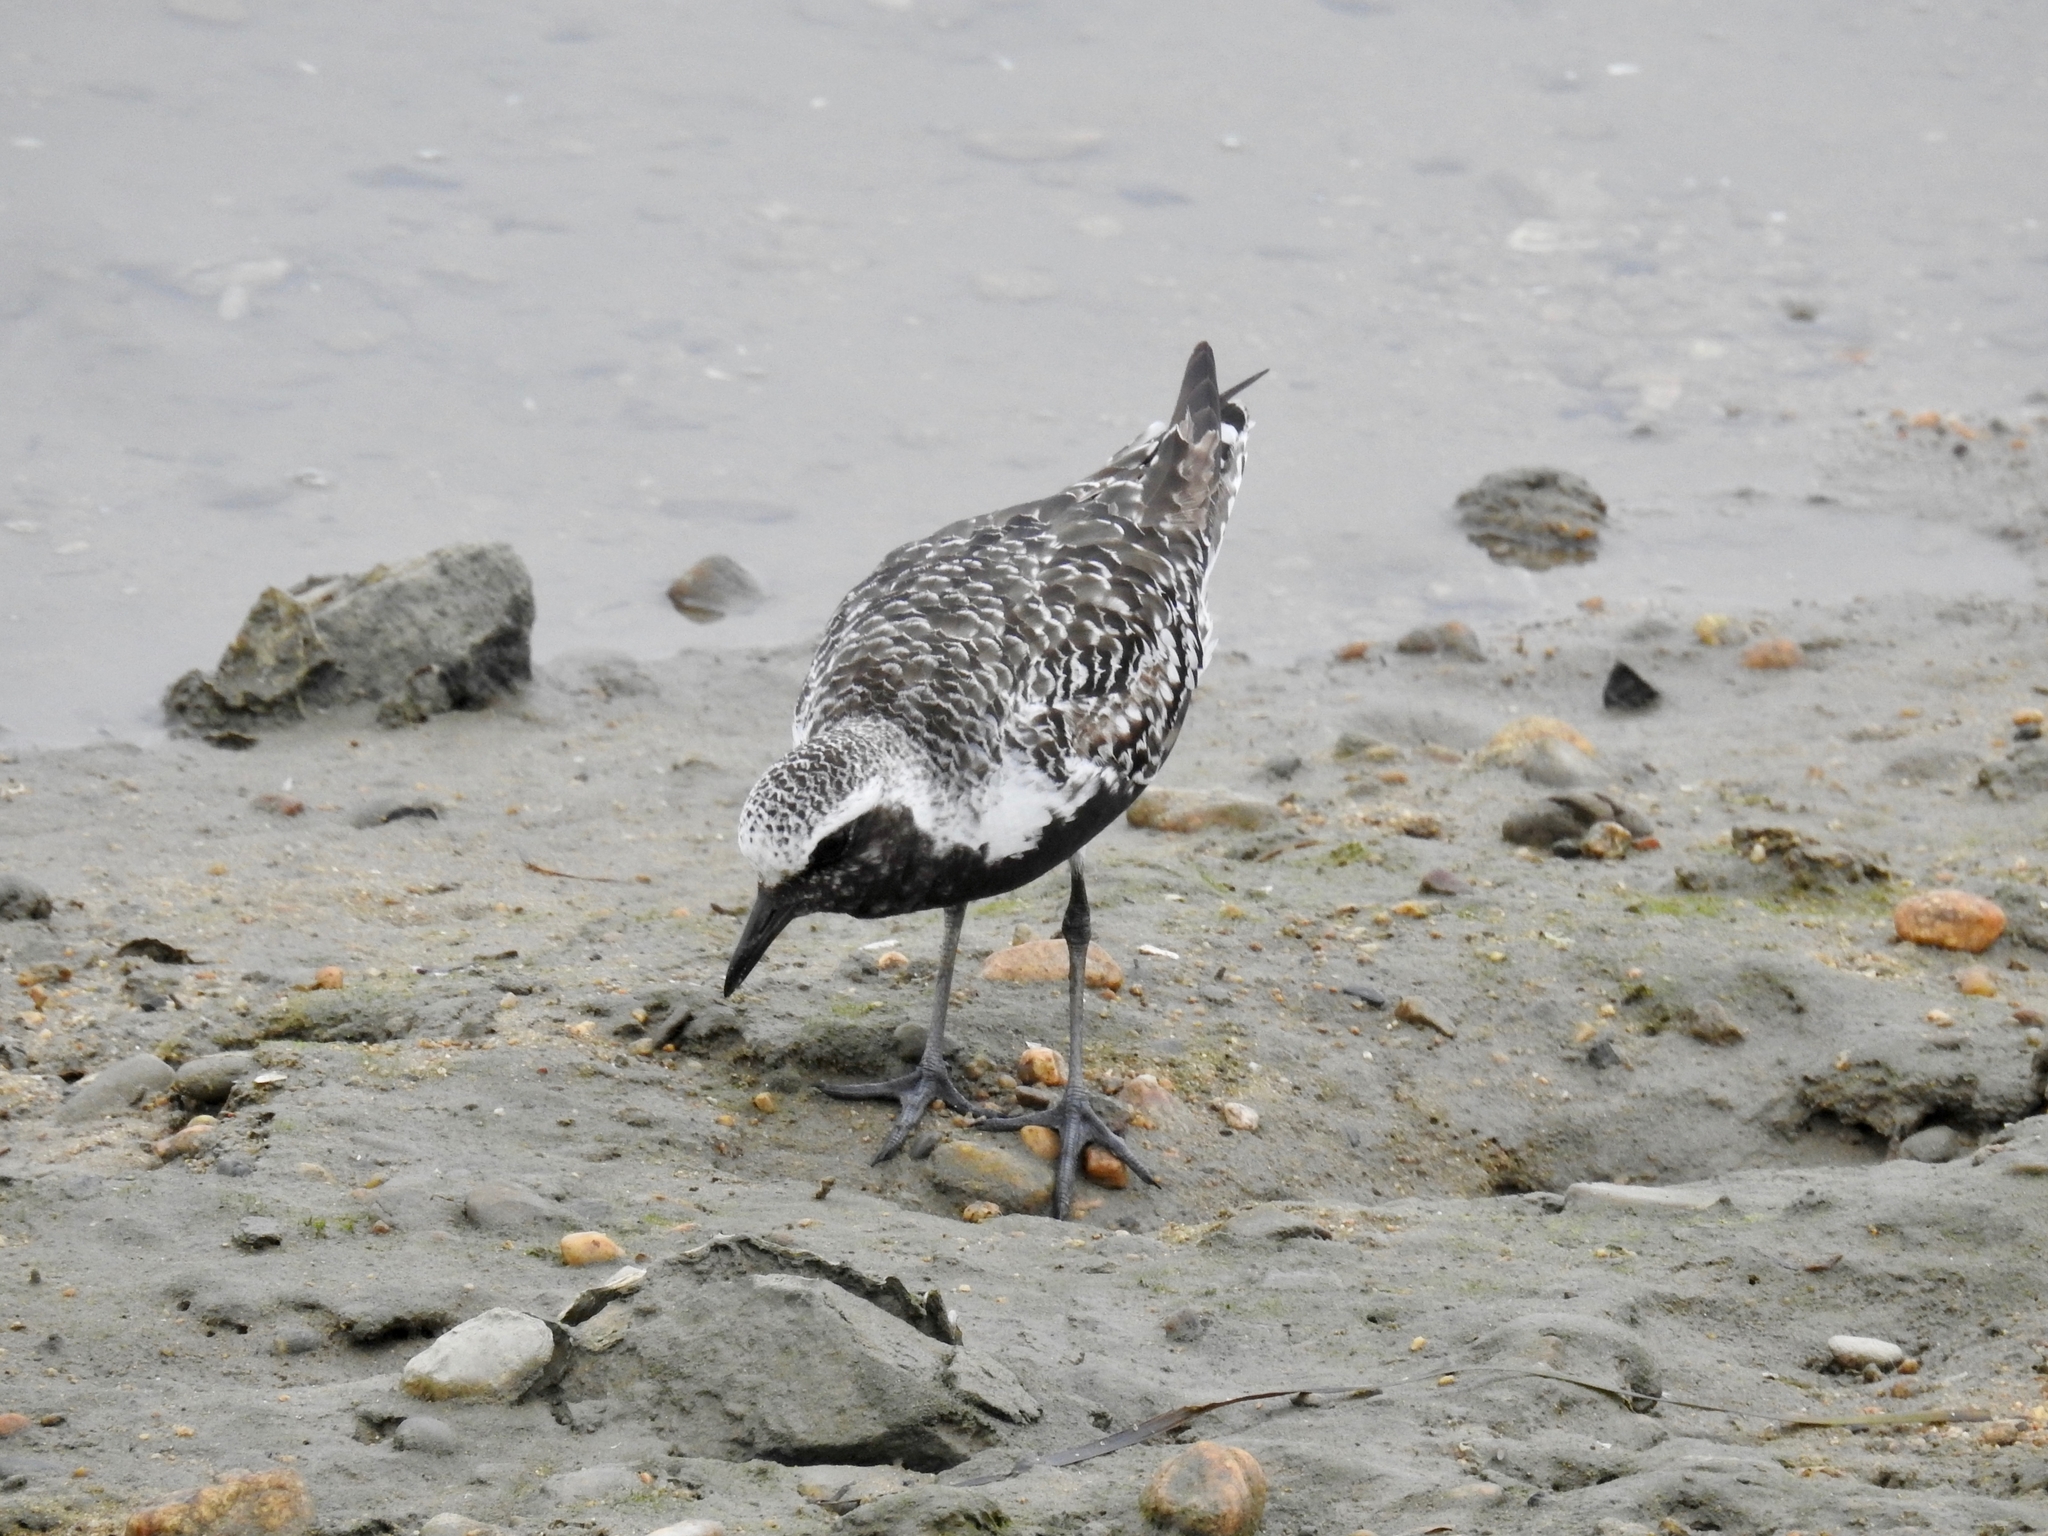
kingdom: Animalia
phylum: Chordata
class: Aves
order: Charadriiformes
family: Charadriidae
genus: Pluvialis
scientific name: Pluvialis squatarola
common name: Grey plover
